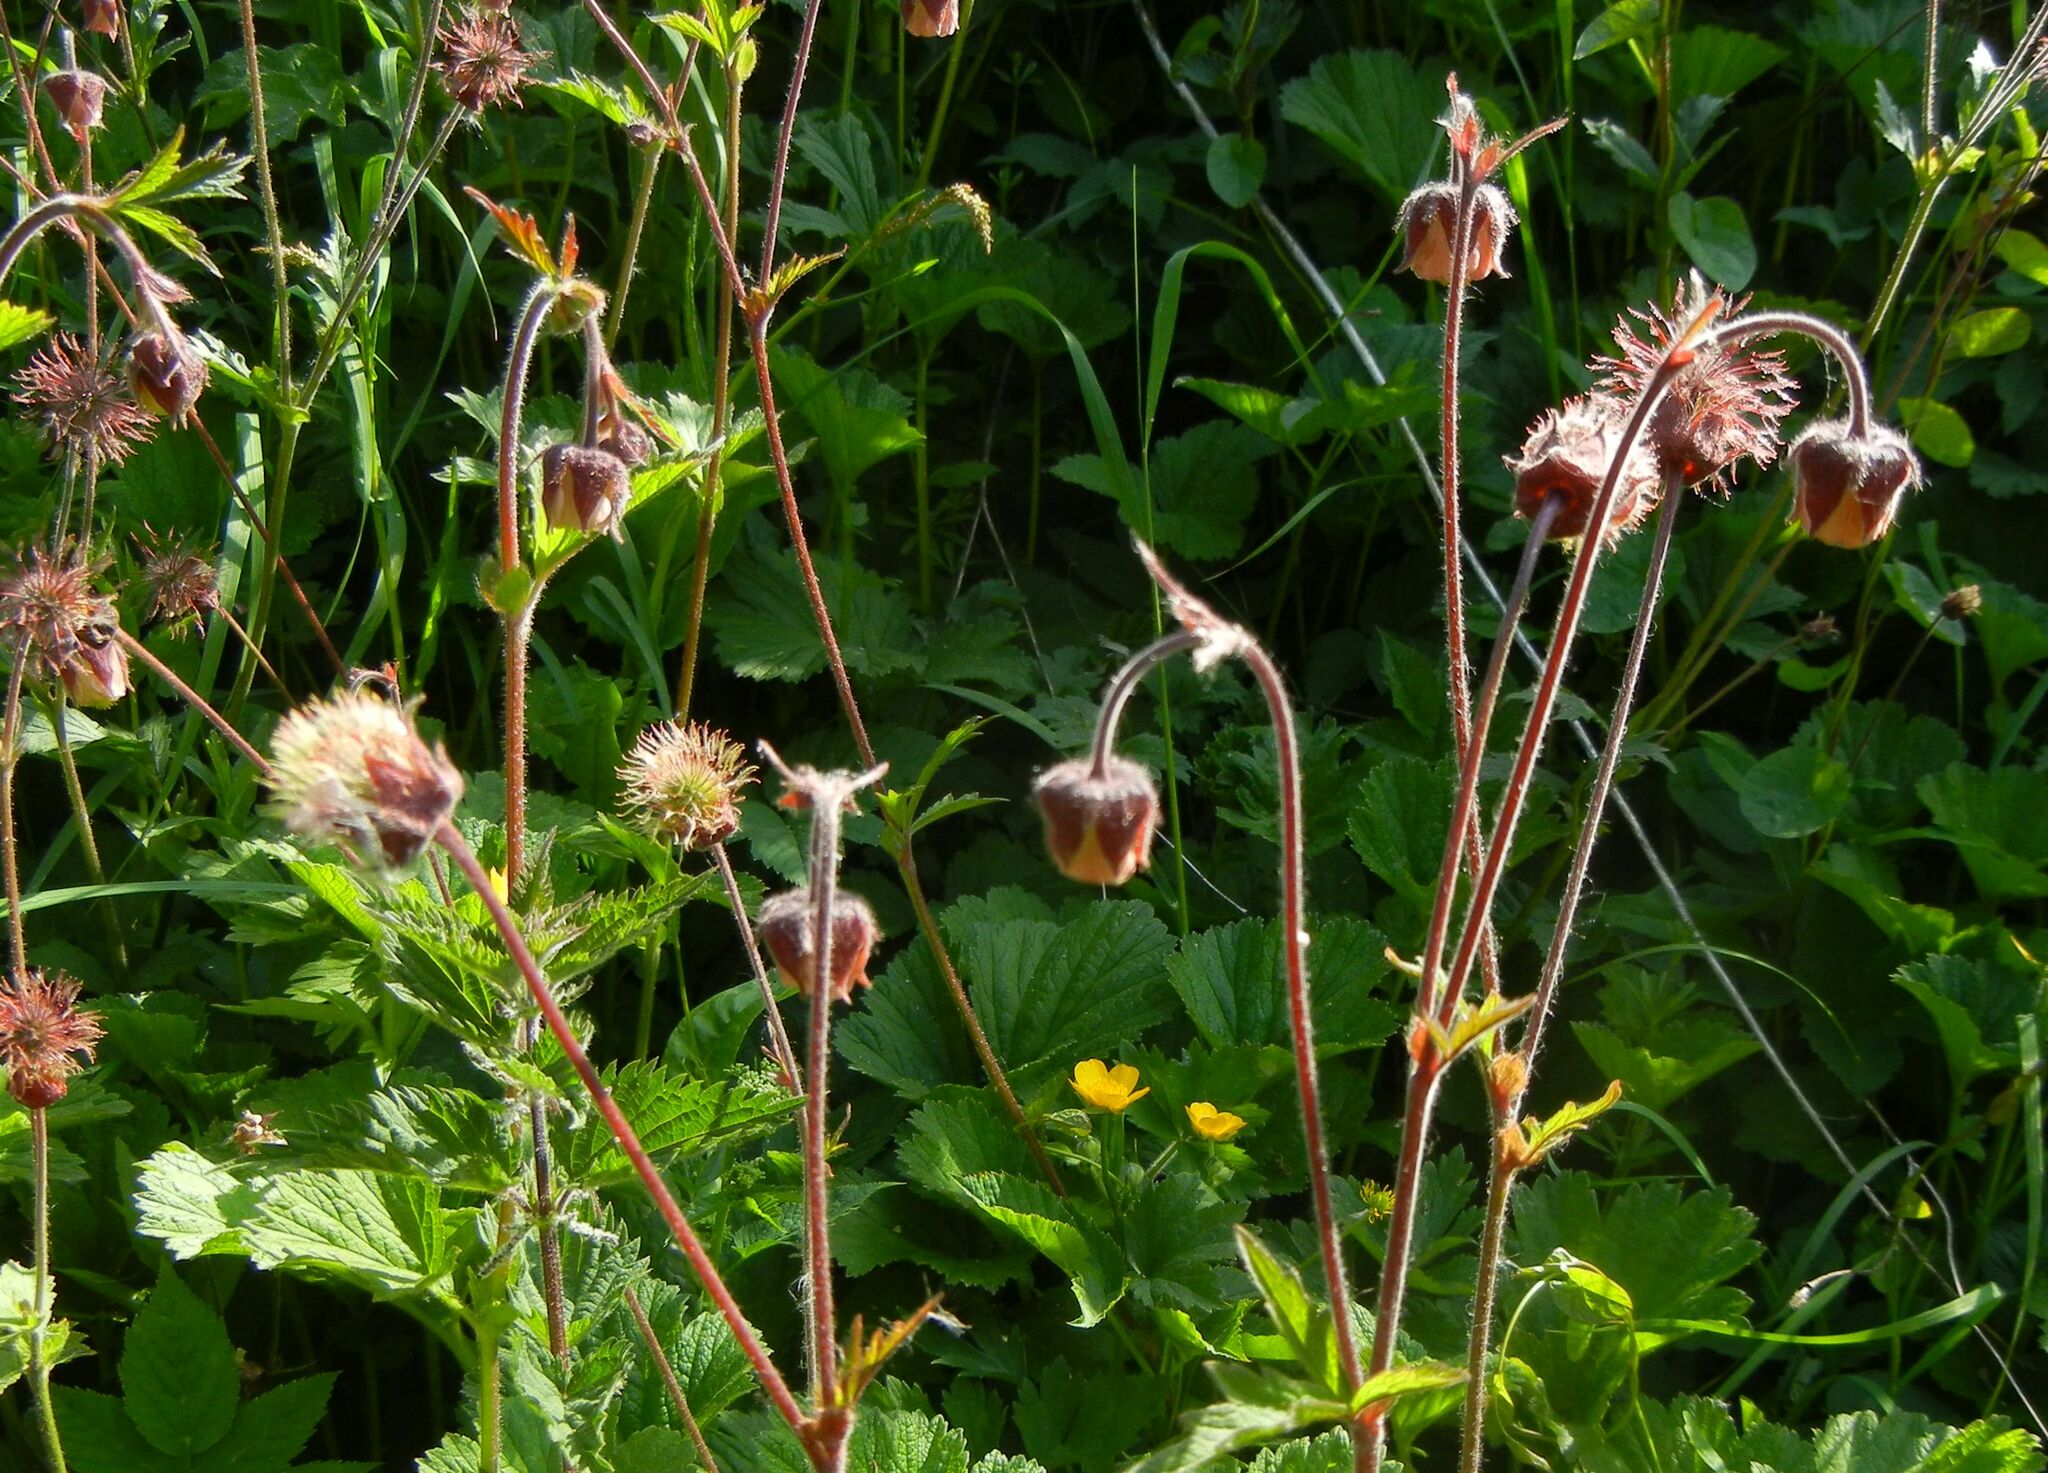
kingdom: Plantae
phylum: Tracheophyta
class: Magnoliopsida
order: Rosales
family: Rosaceae
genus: Geum
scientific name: Geum rivale
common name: Water avens
